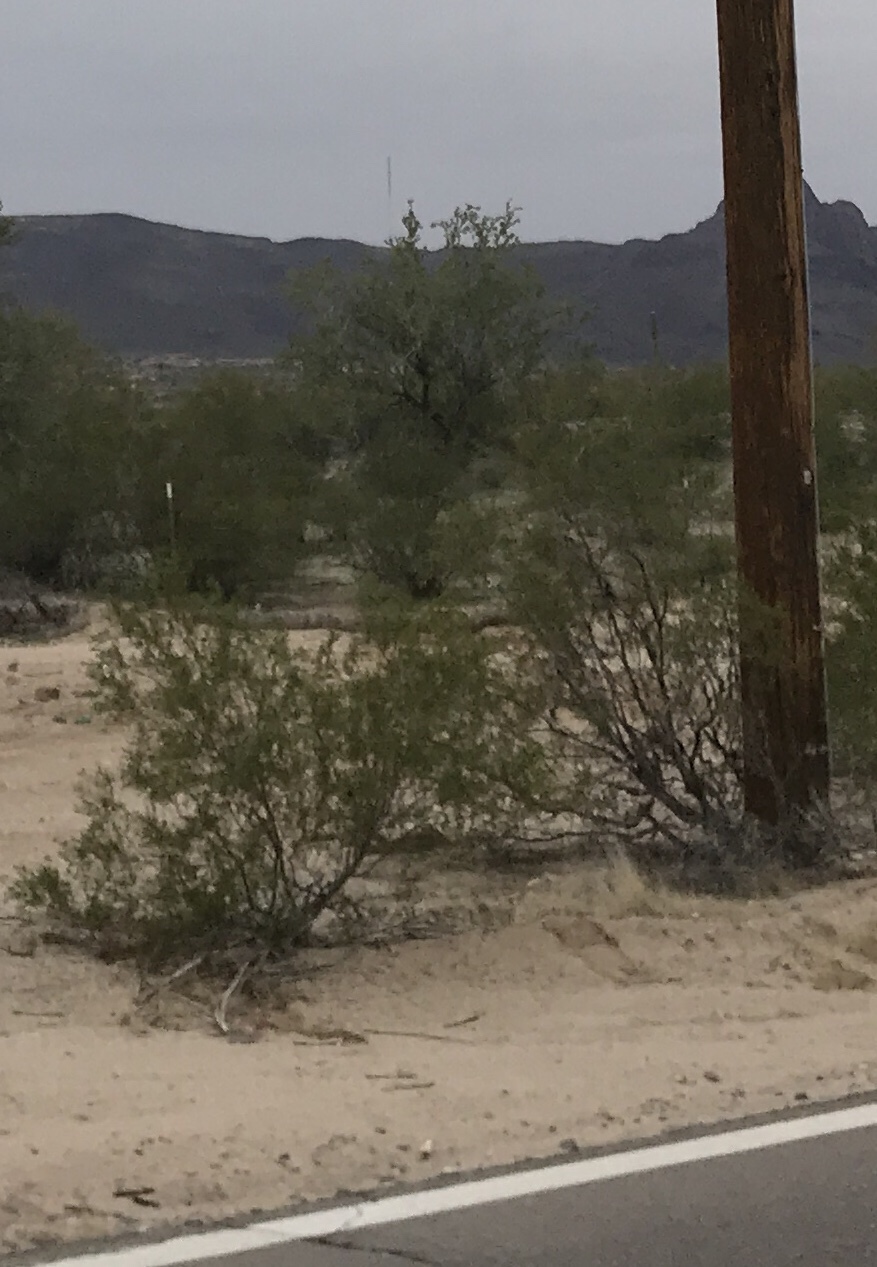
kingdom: Plantae
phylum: Tracheophyta
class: Magnoliopsida
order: Zygophyllales
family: Zygophyllaceae
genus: Larrea
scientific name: Larrea tridentata
